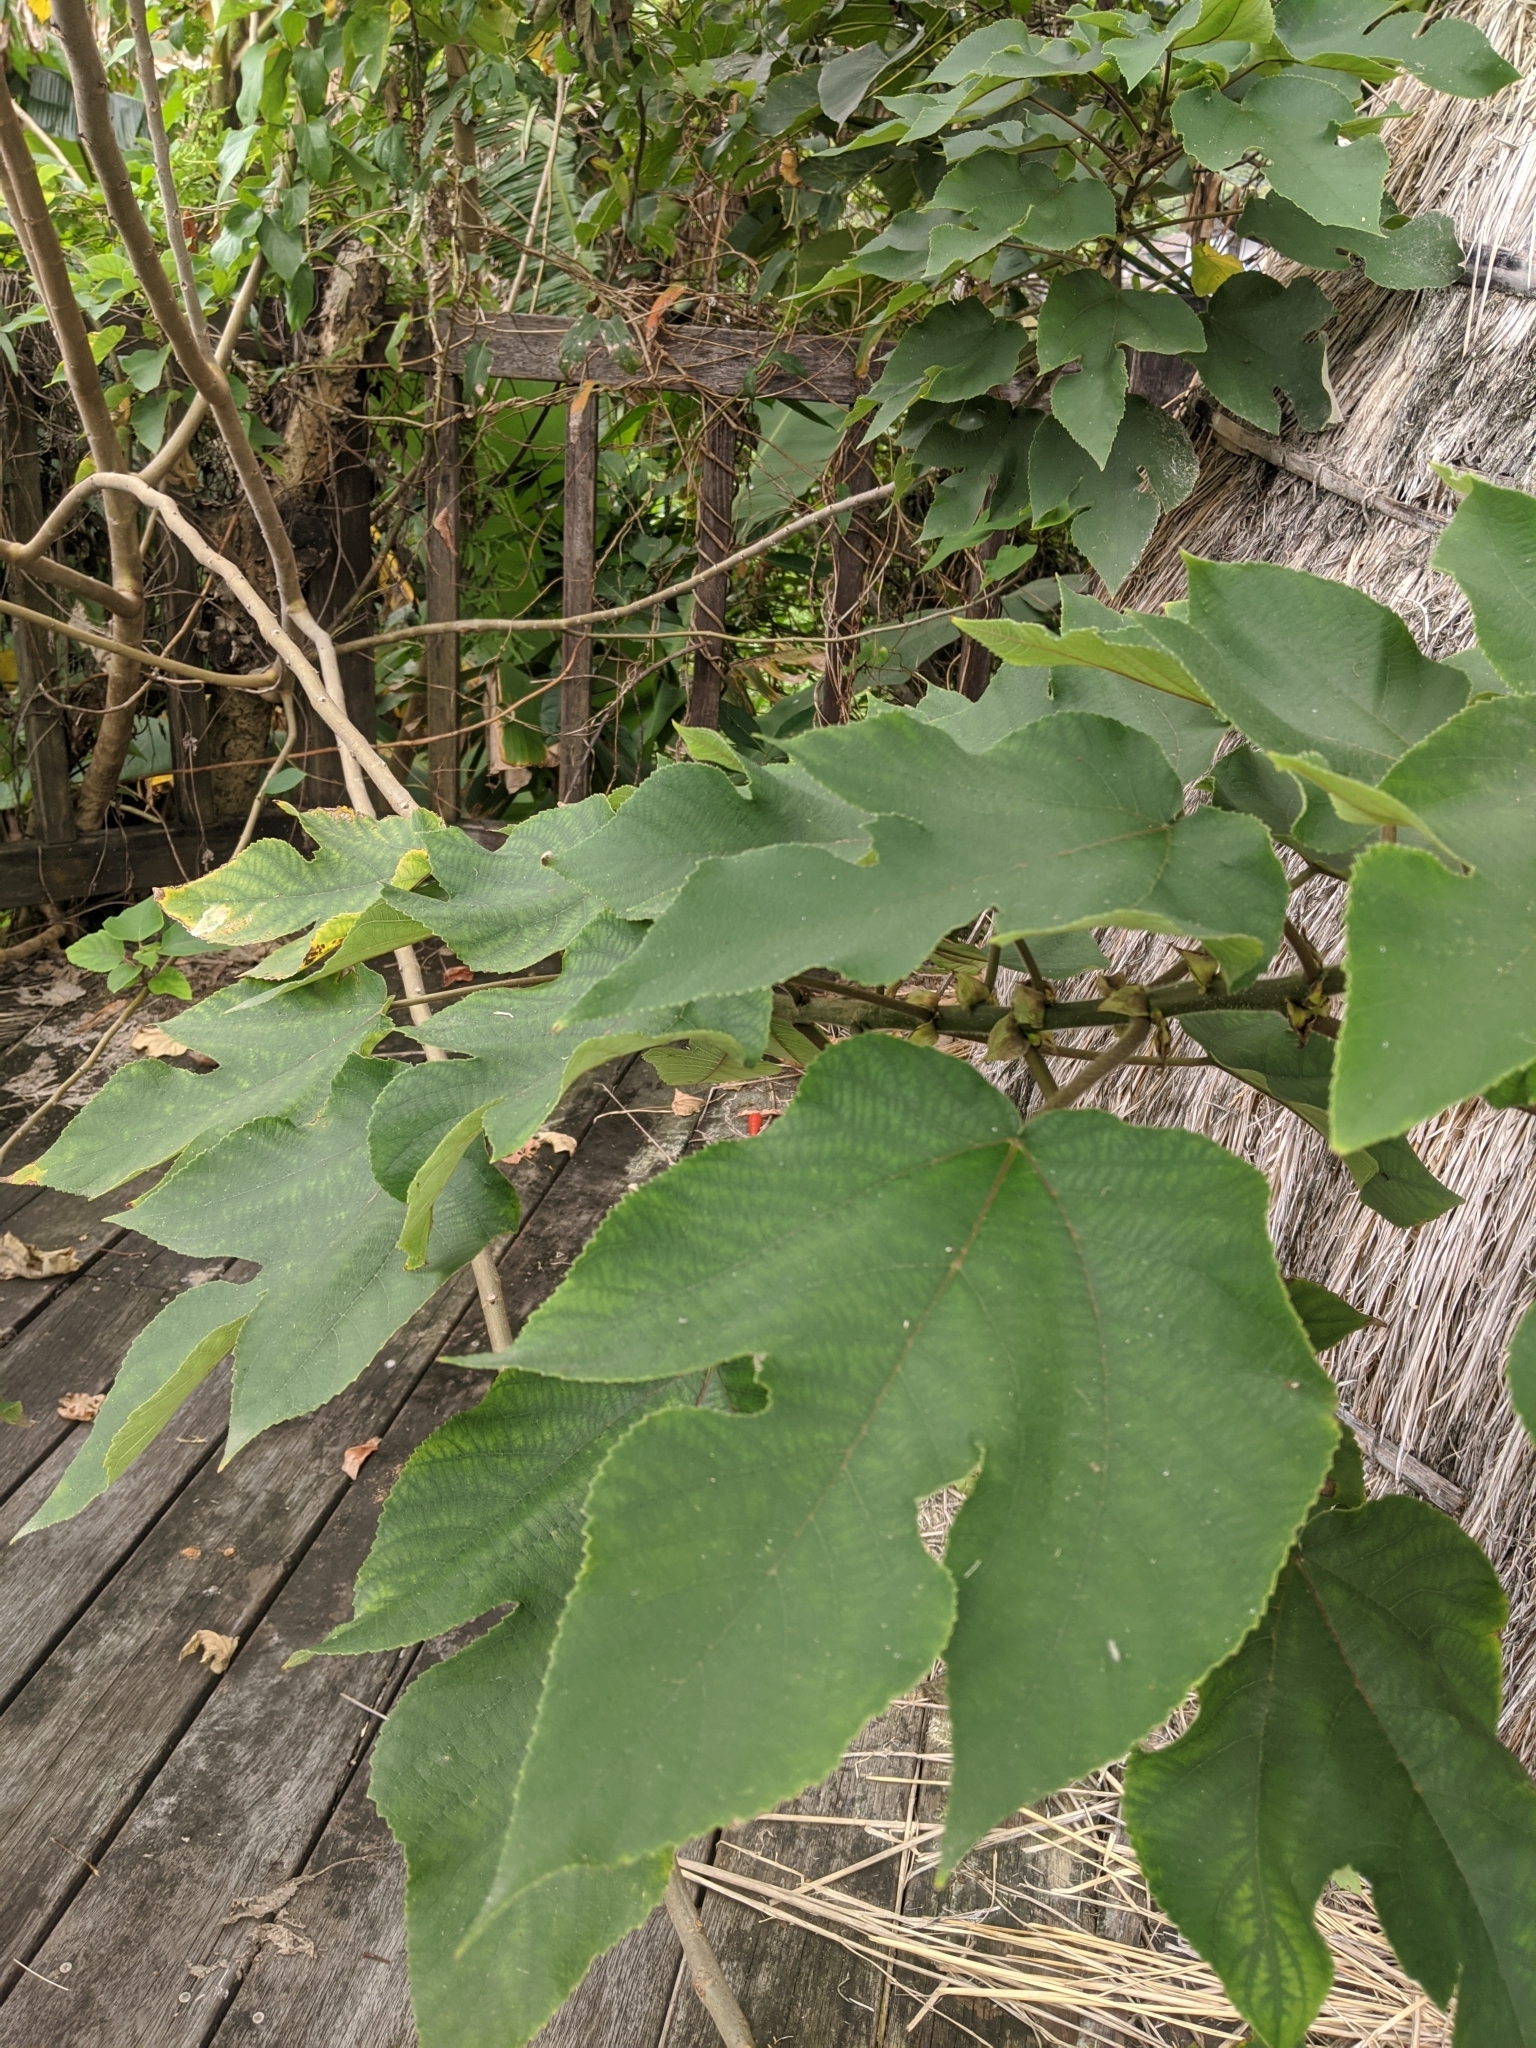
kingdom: Plantae
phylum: Tracheophyta
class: Magnoliopsida
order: Rosales
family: Moraceae
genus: Broussonetia
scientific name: Broussonetia papyrifera
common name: Paper mulberry
